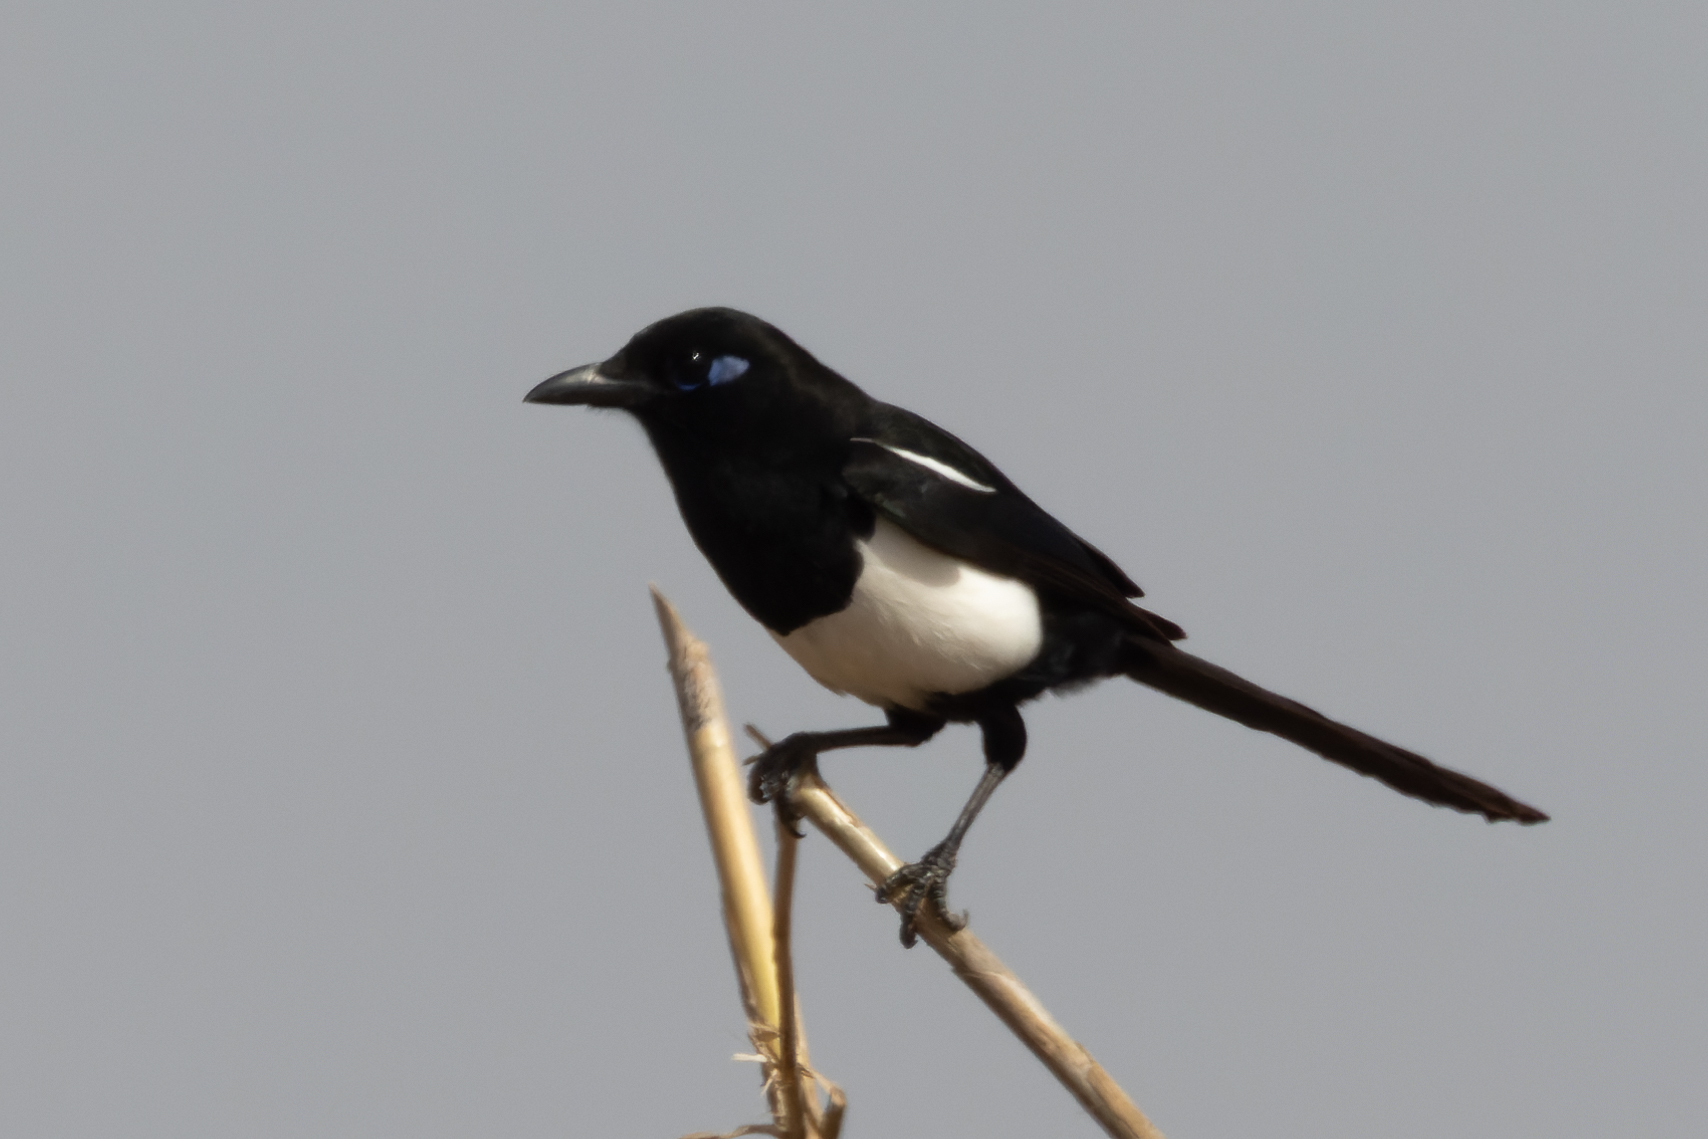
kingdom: Animalia
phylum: Chordata
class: Aves
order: Passeriformes
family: Corvidae
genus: Pica
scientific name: Pica mauritanica
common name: Maghreb magpie
